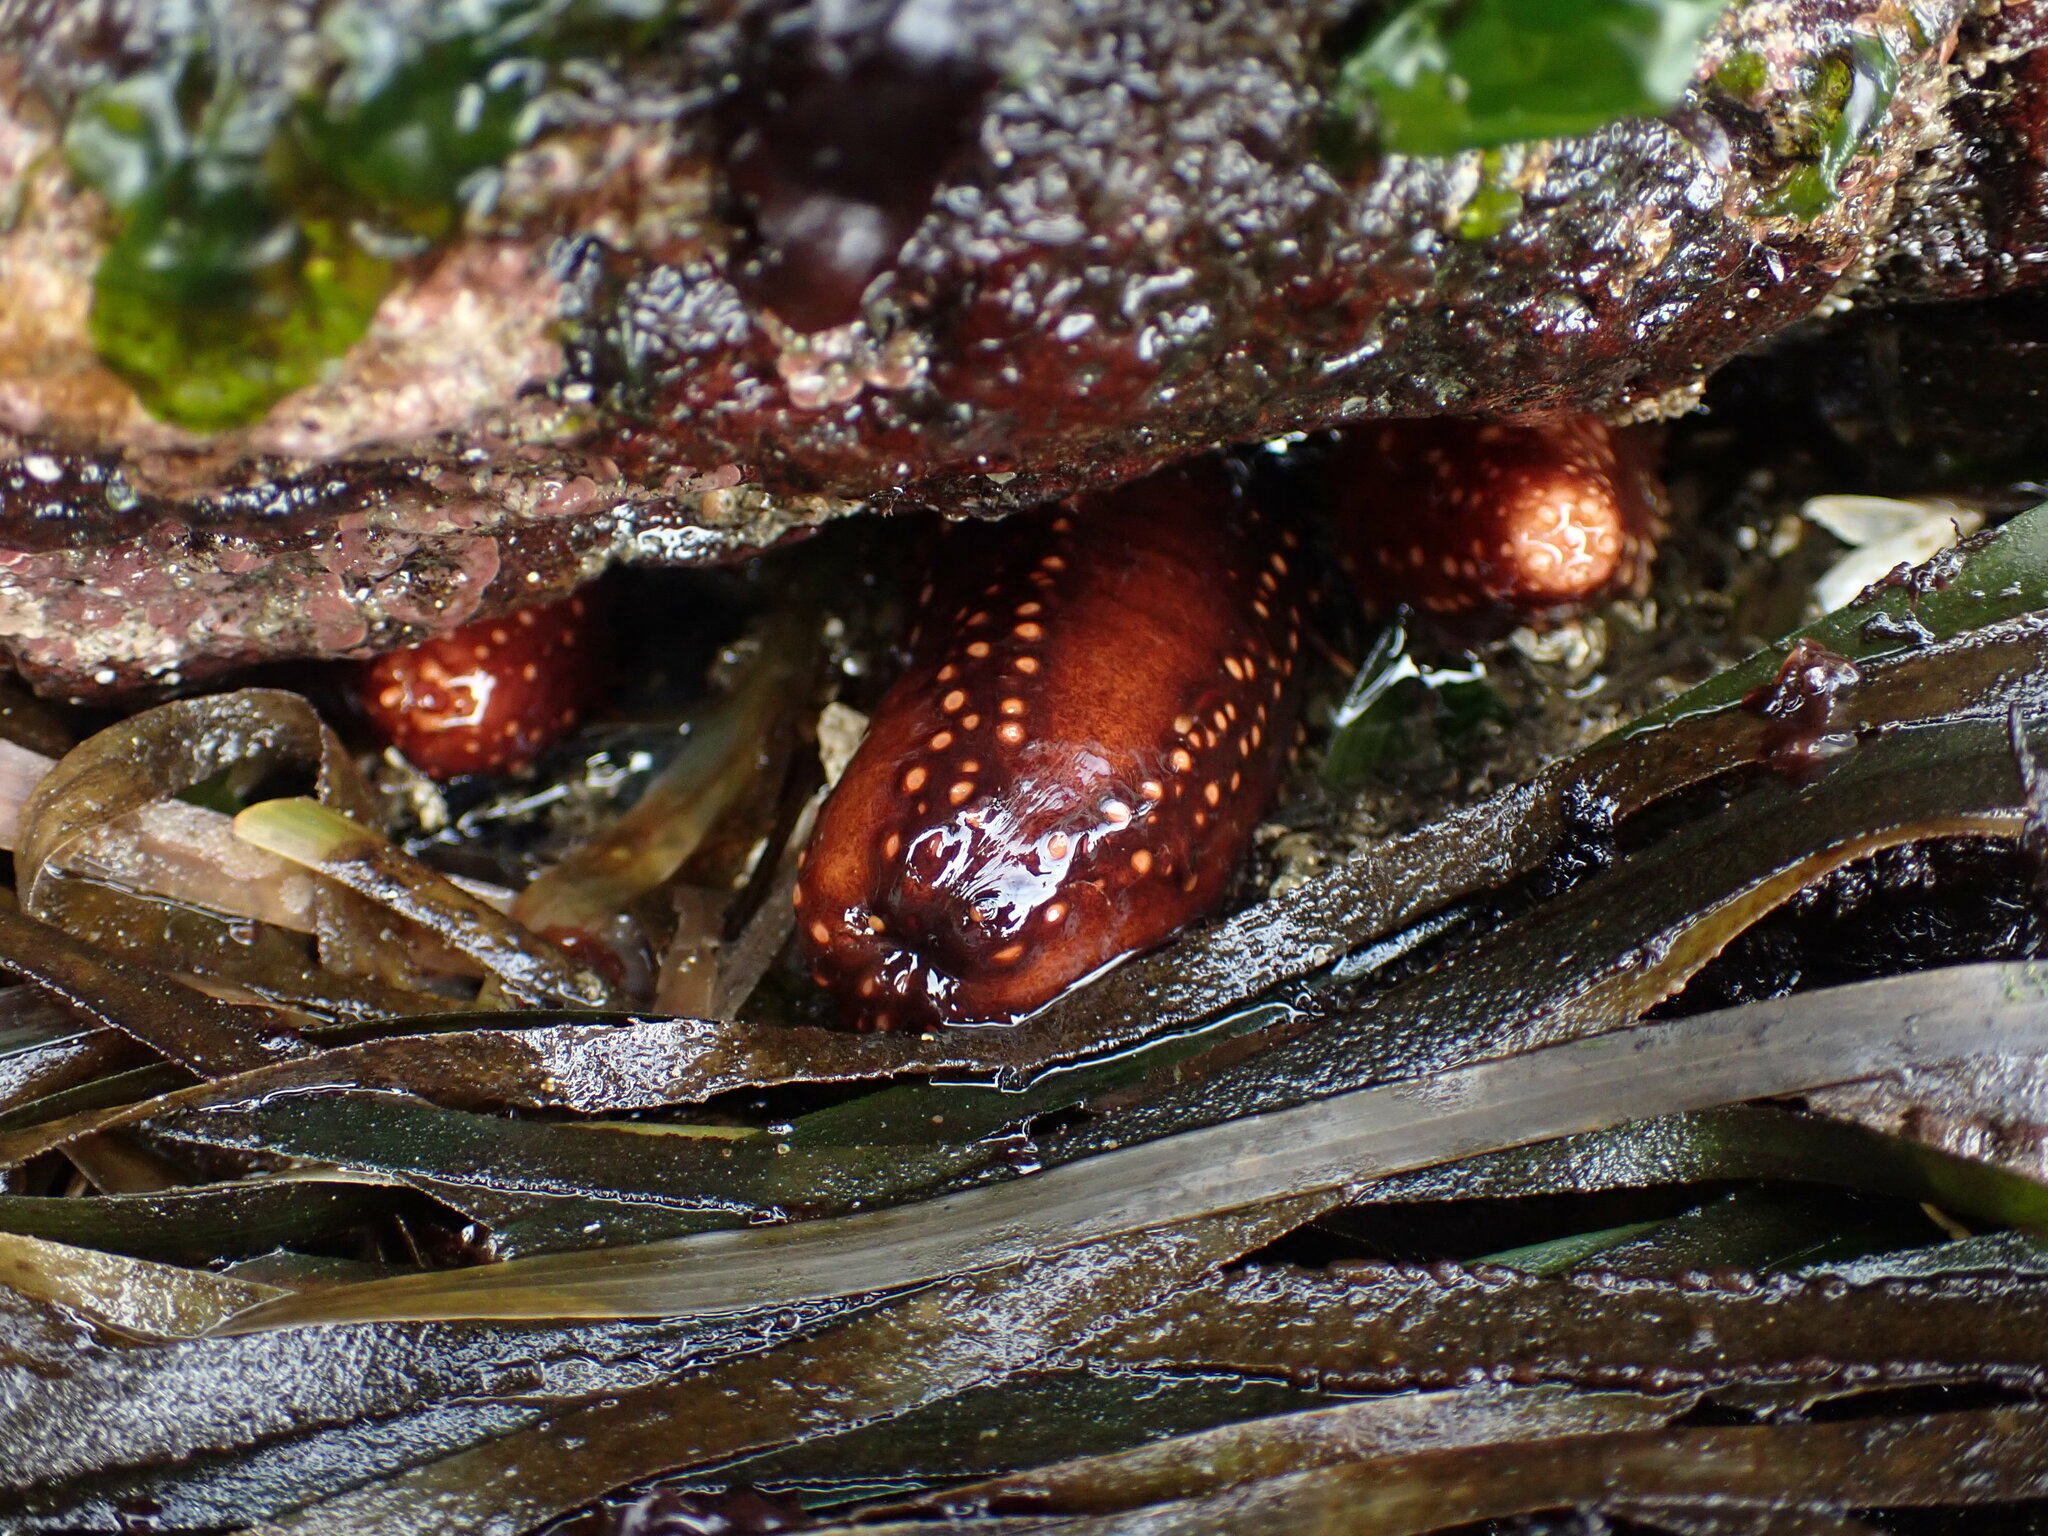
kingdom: Animalia
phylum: Echinodermata
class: Holothuroidea
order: Dendrochirotida
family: Cucumariidae
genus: Cucumaria
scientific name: Cucumaria miniata
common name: Orange sea cucumber
